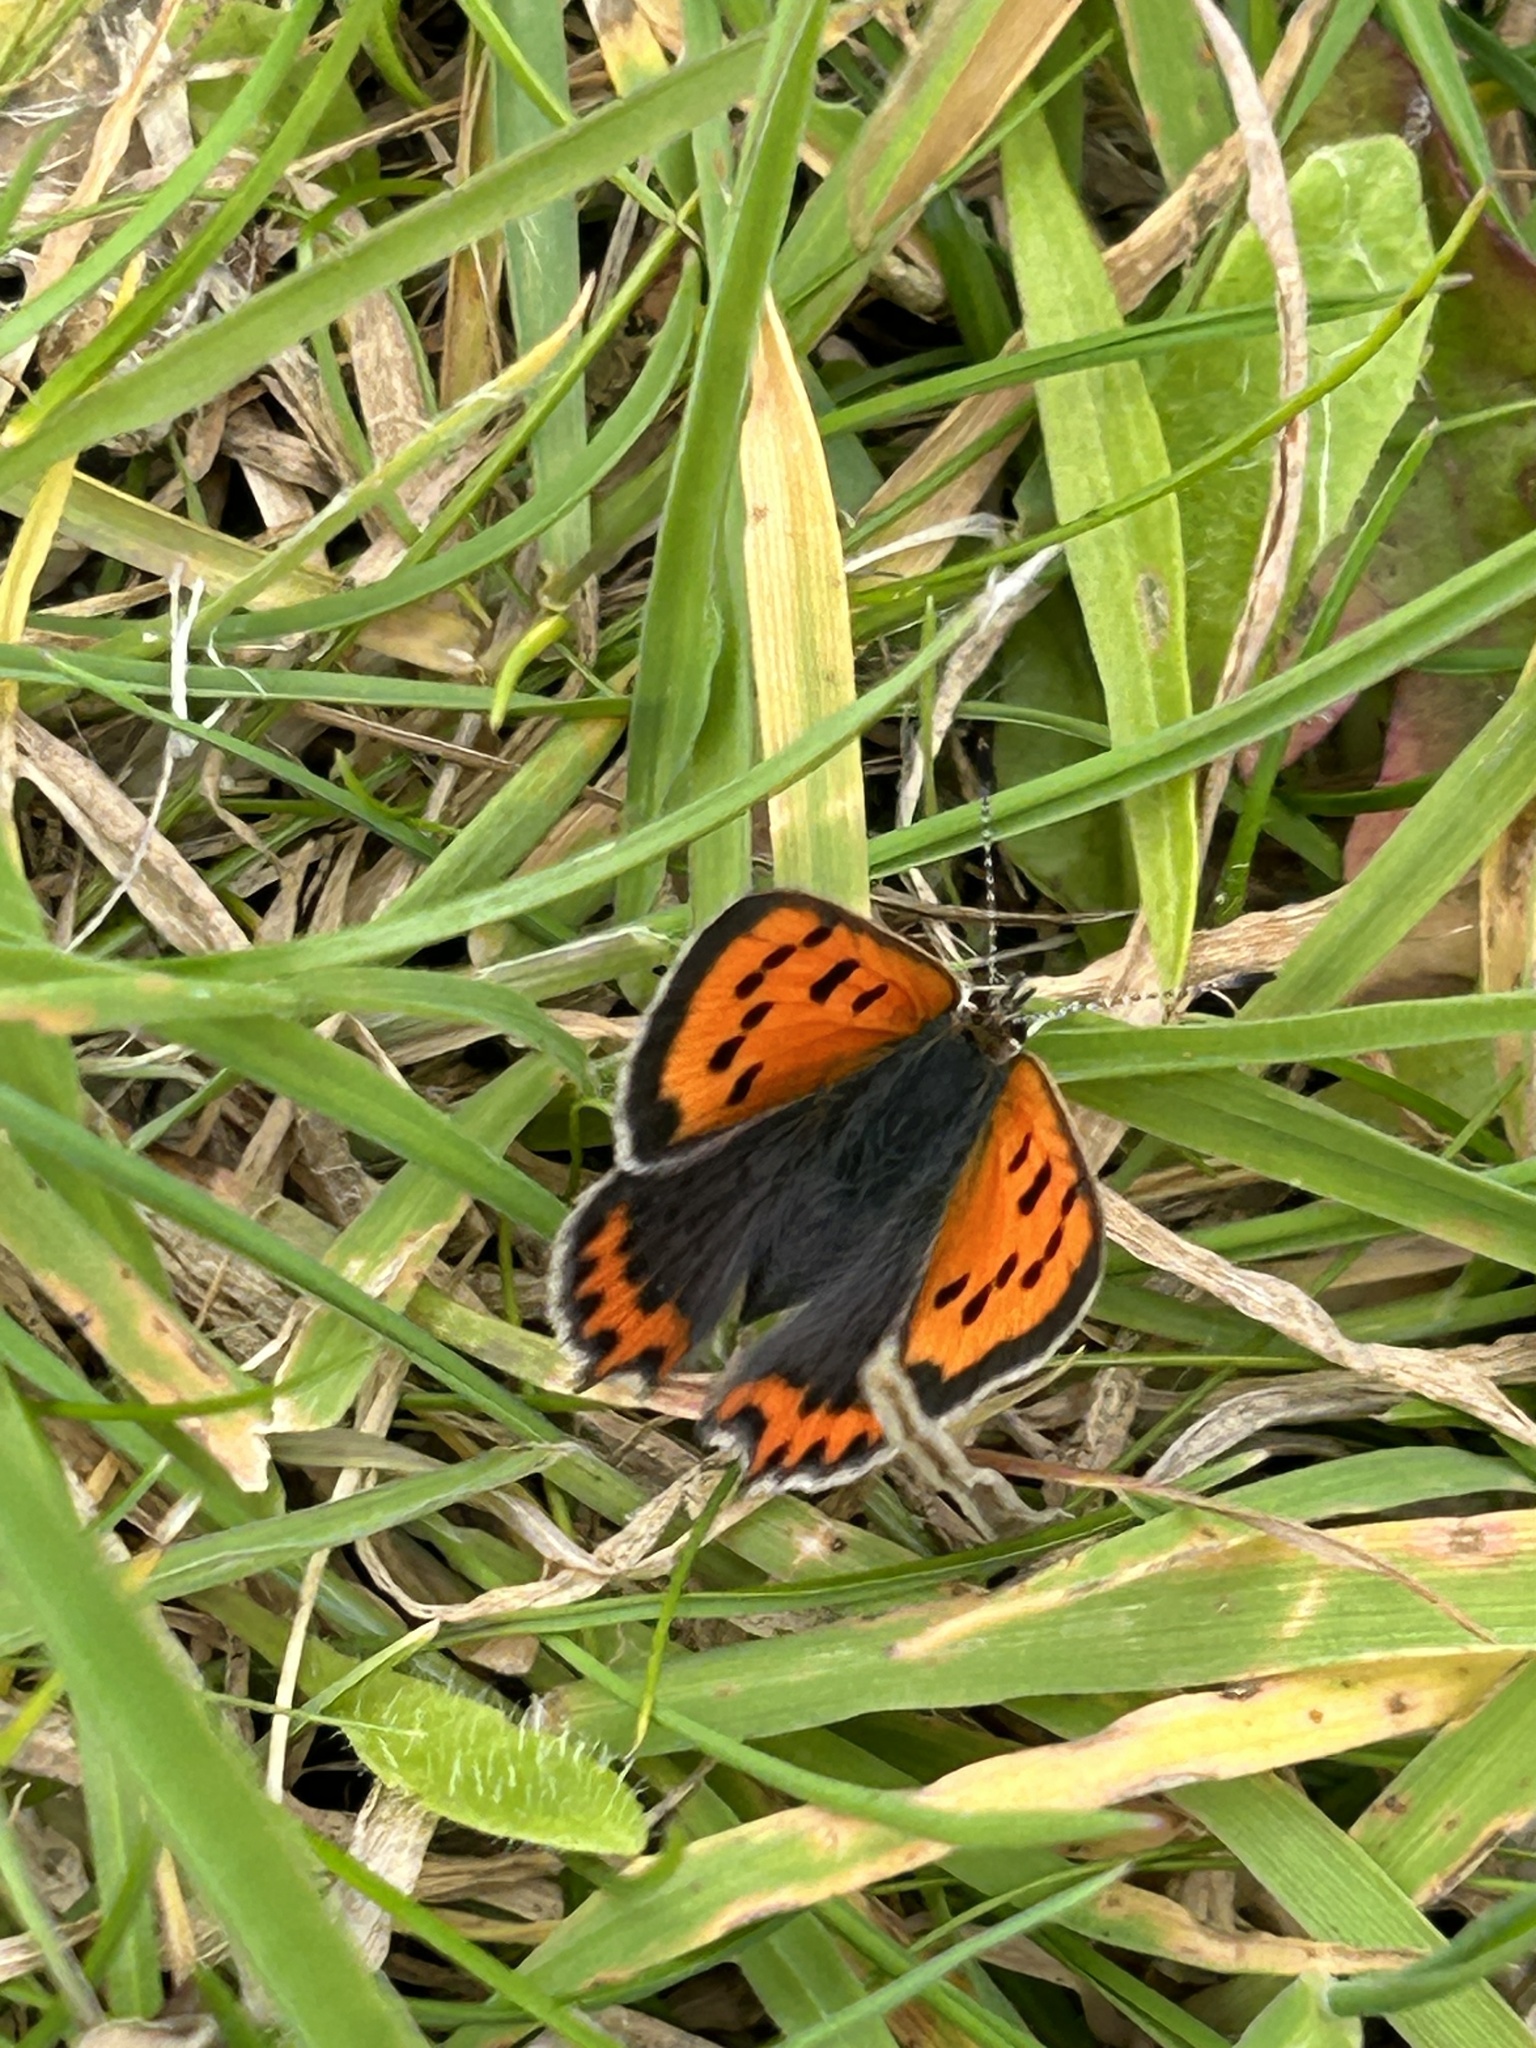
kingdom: Animalia
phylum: Arthropoda
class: Insecta
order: Lepidoptera
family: Lycaenidae
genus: Lycaena
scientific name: Lycaena phlaeas
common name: Small copper
